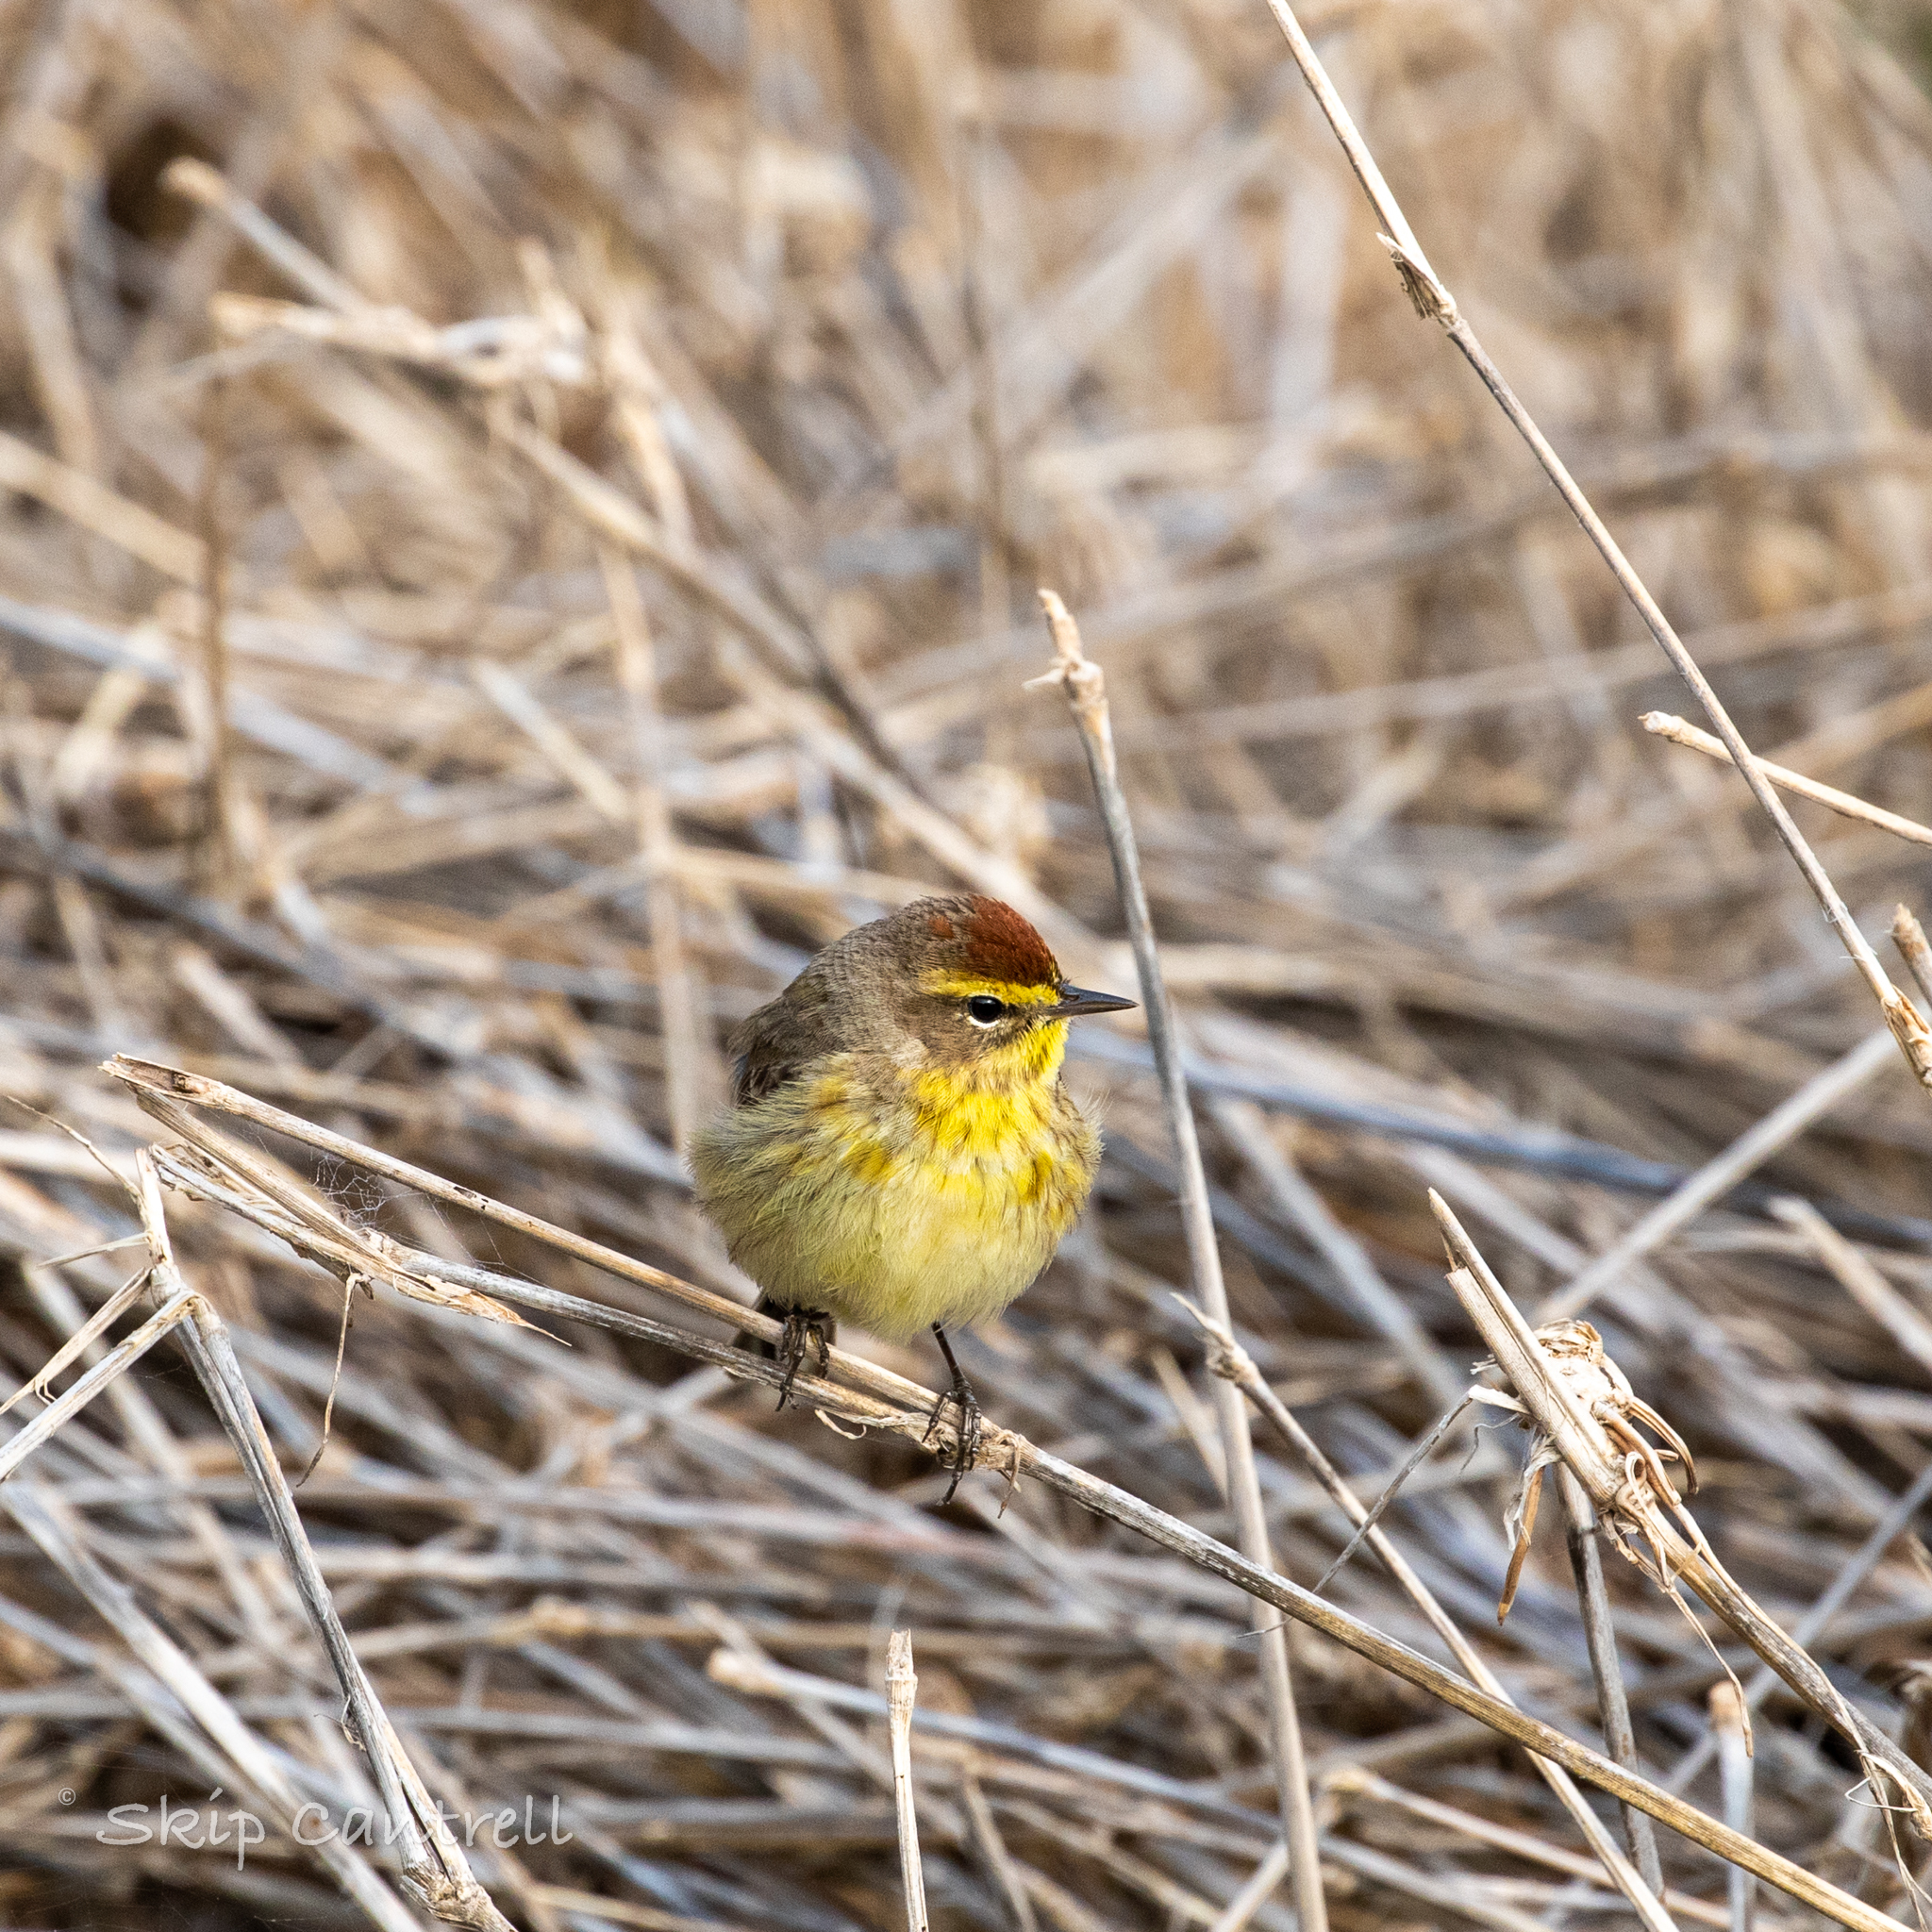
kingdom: Animalia
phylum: Chordata
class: Aves
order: Passeriformes
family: Parulidae
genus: Setophaga
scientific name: Setophaga palmarum
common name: Palm warbler
